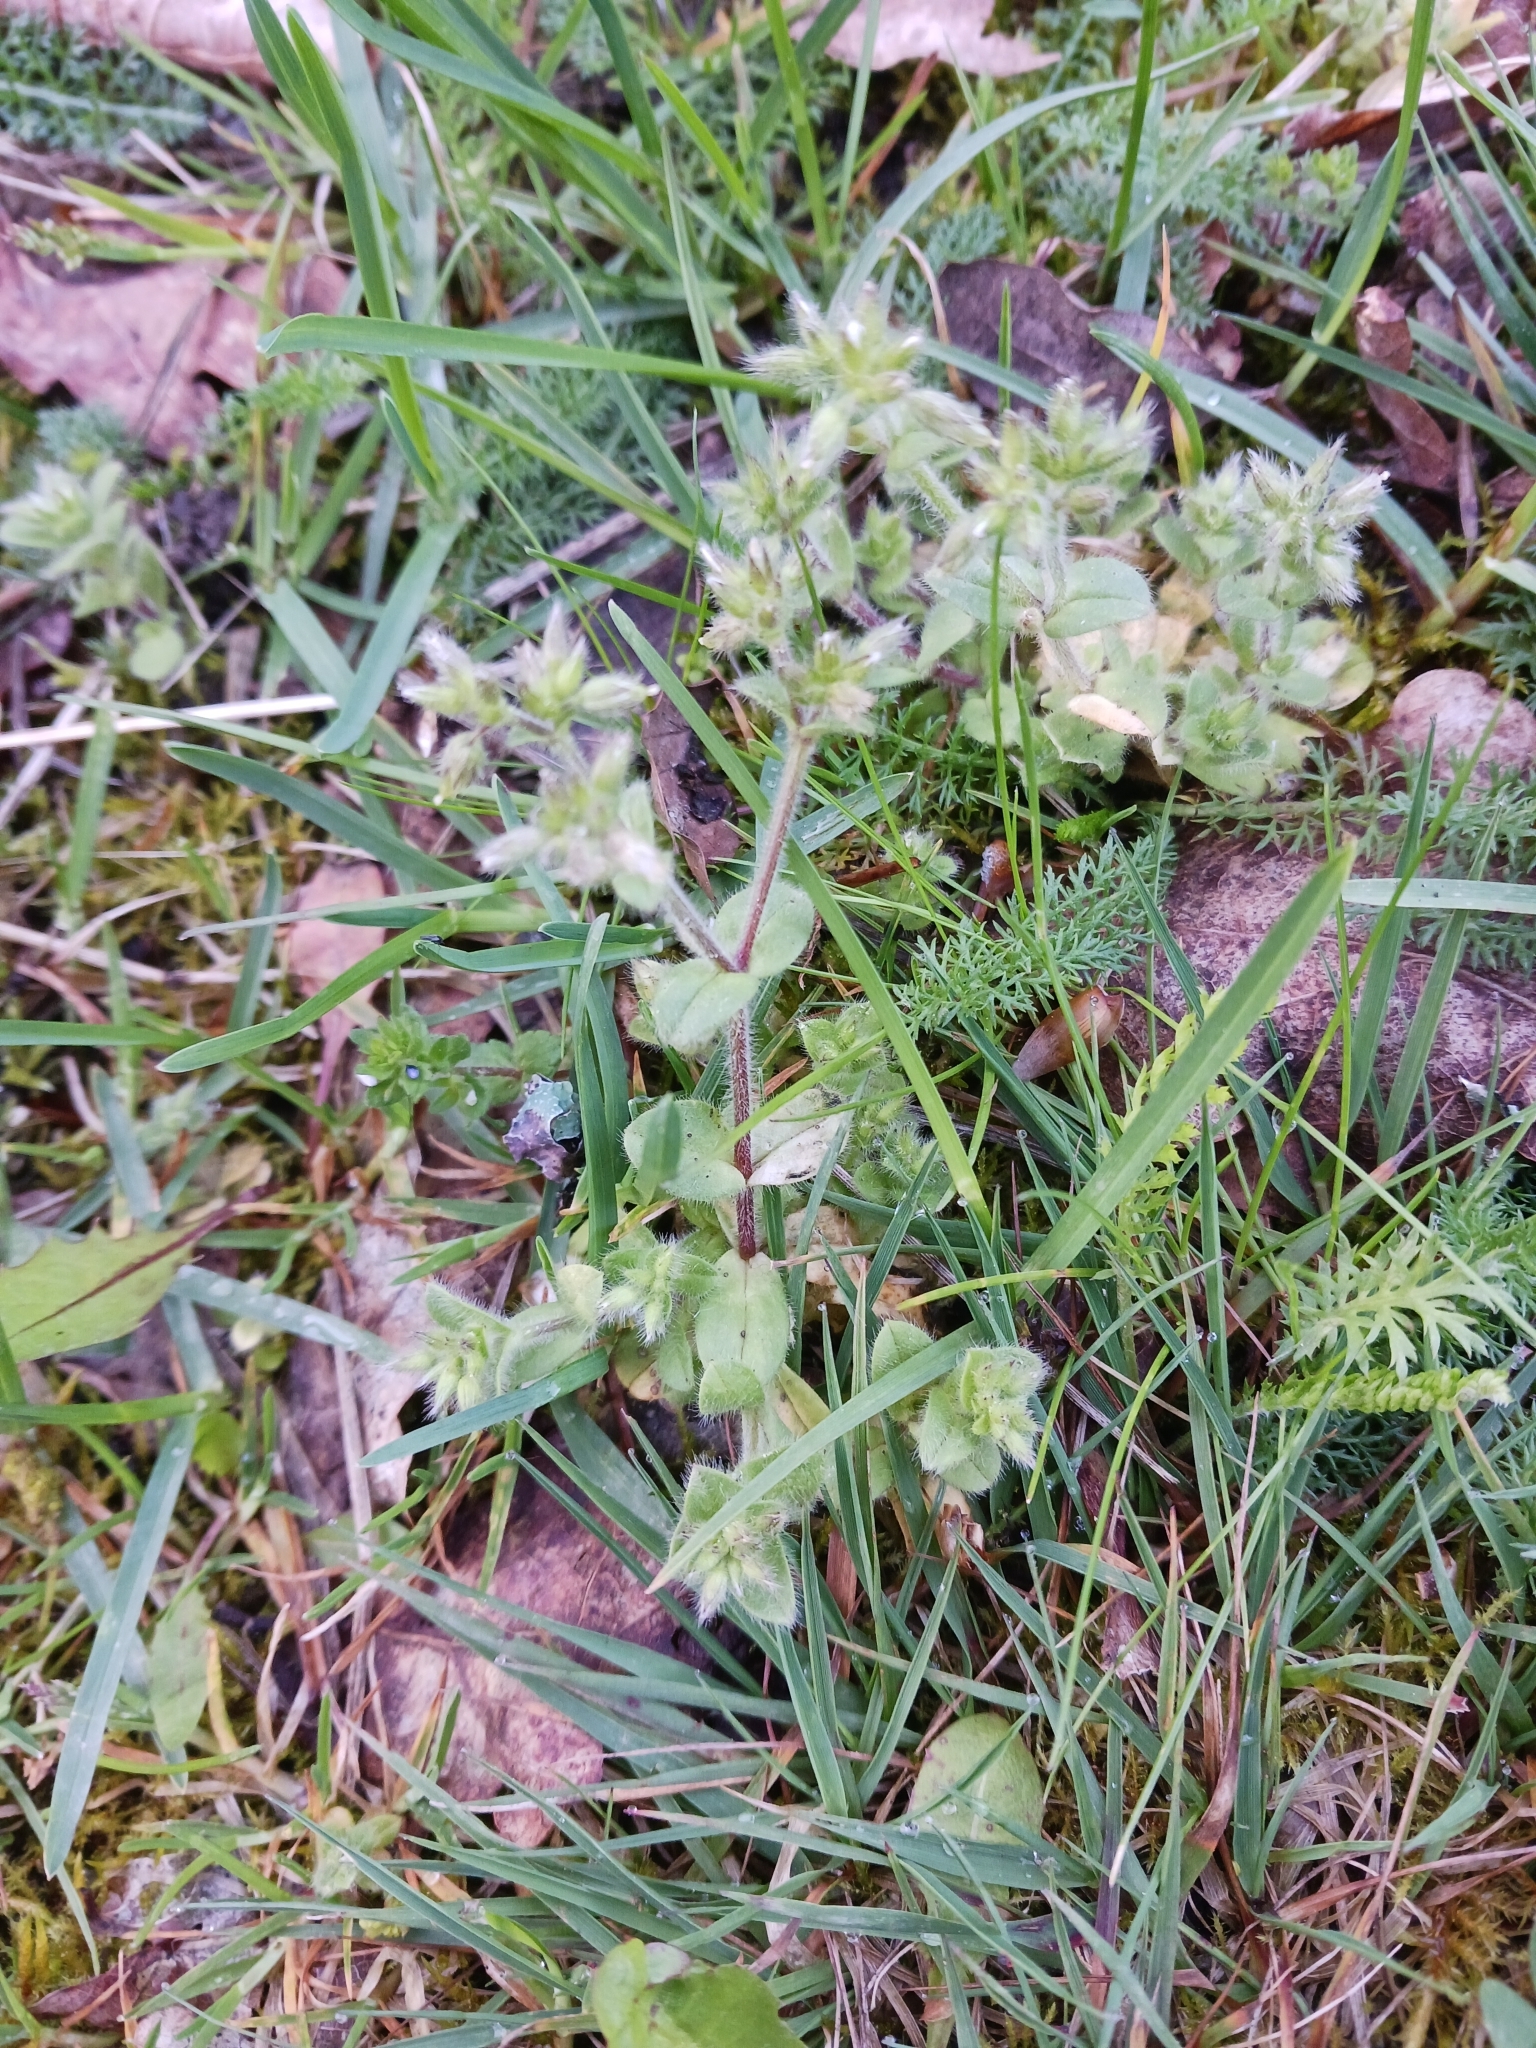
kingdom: Plantae
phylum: Tracheophyta
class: Magnoliopsida
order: Caryophyllales
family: Caryophyllaceae
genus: Cerastium
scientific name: Cerastium glomeratum
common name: Sticky chickweed
